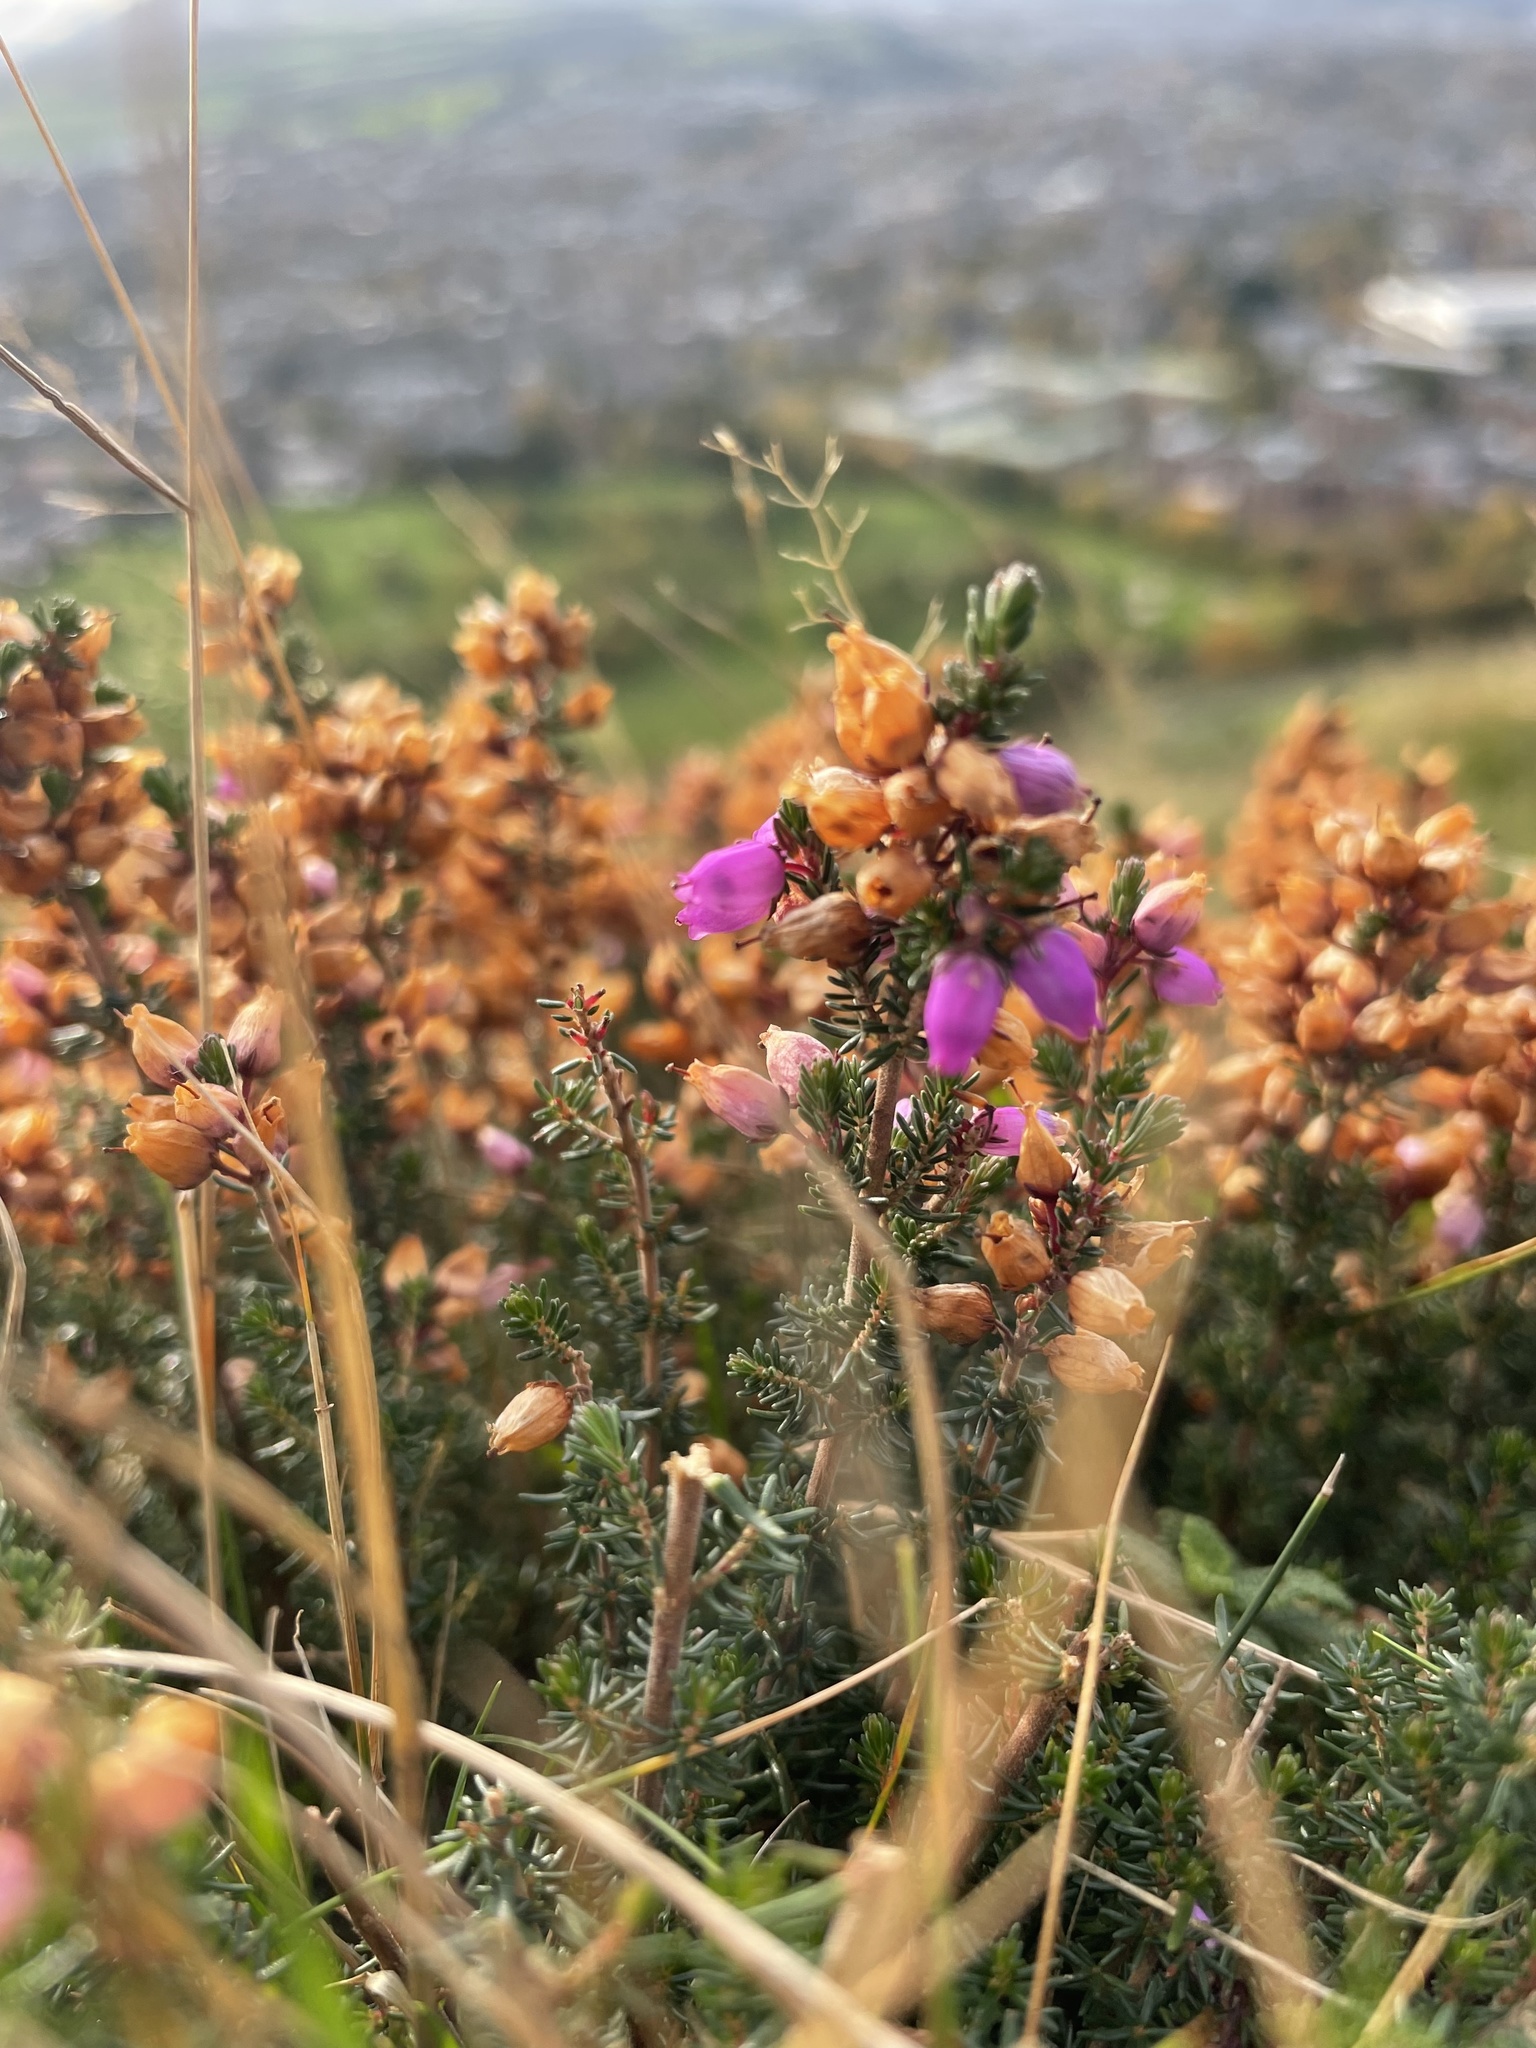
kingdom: Plantae
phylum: Tracheophyta
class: Magnoliopsida
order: Ericales
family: Ericaceae
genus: Erica
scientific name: Erica cinerea
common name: Bell heather
